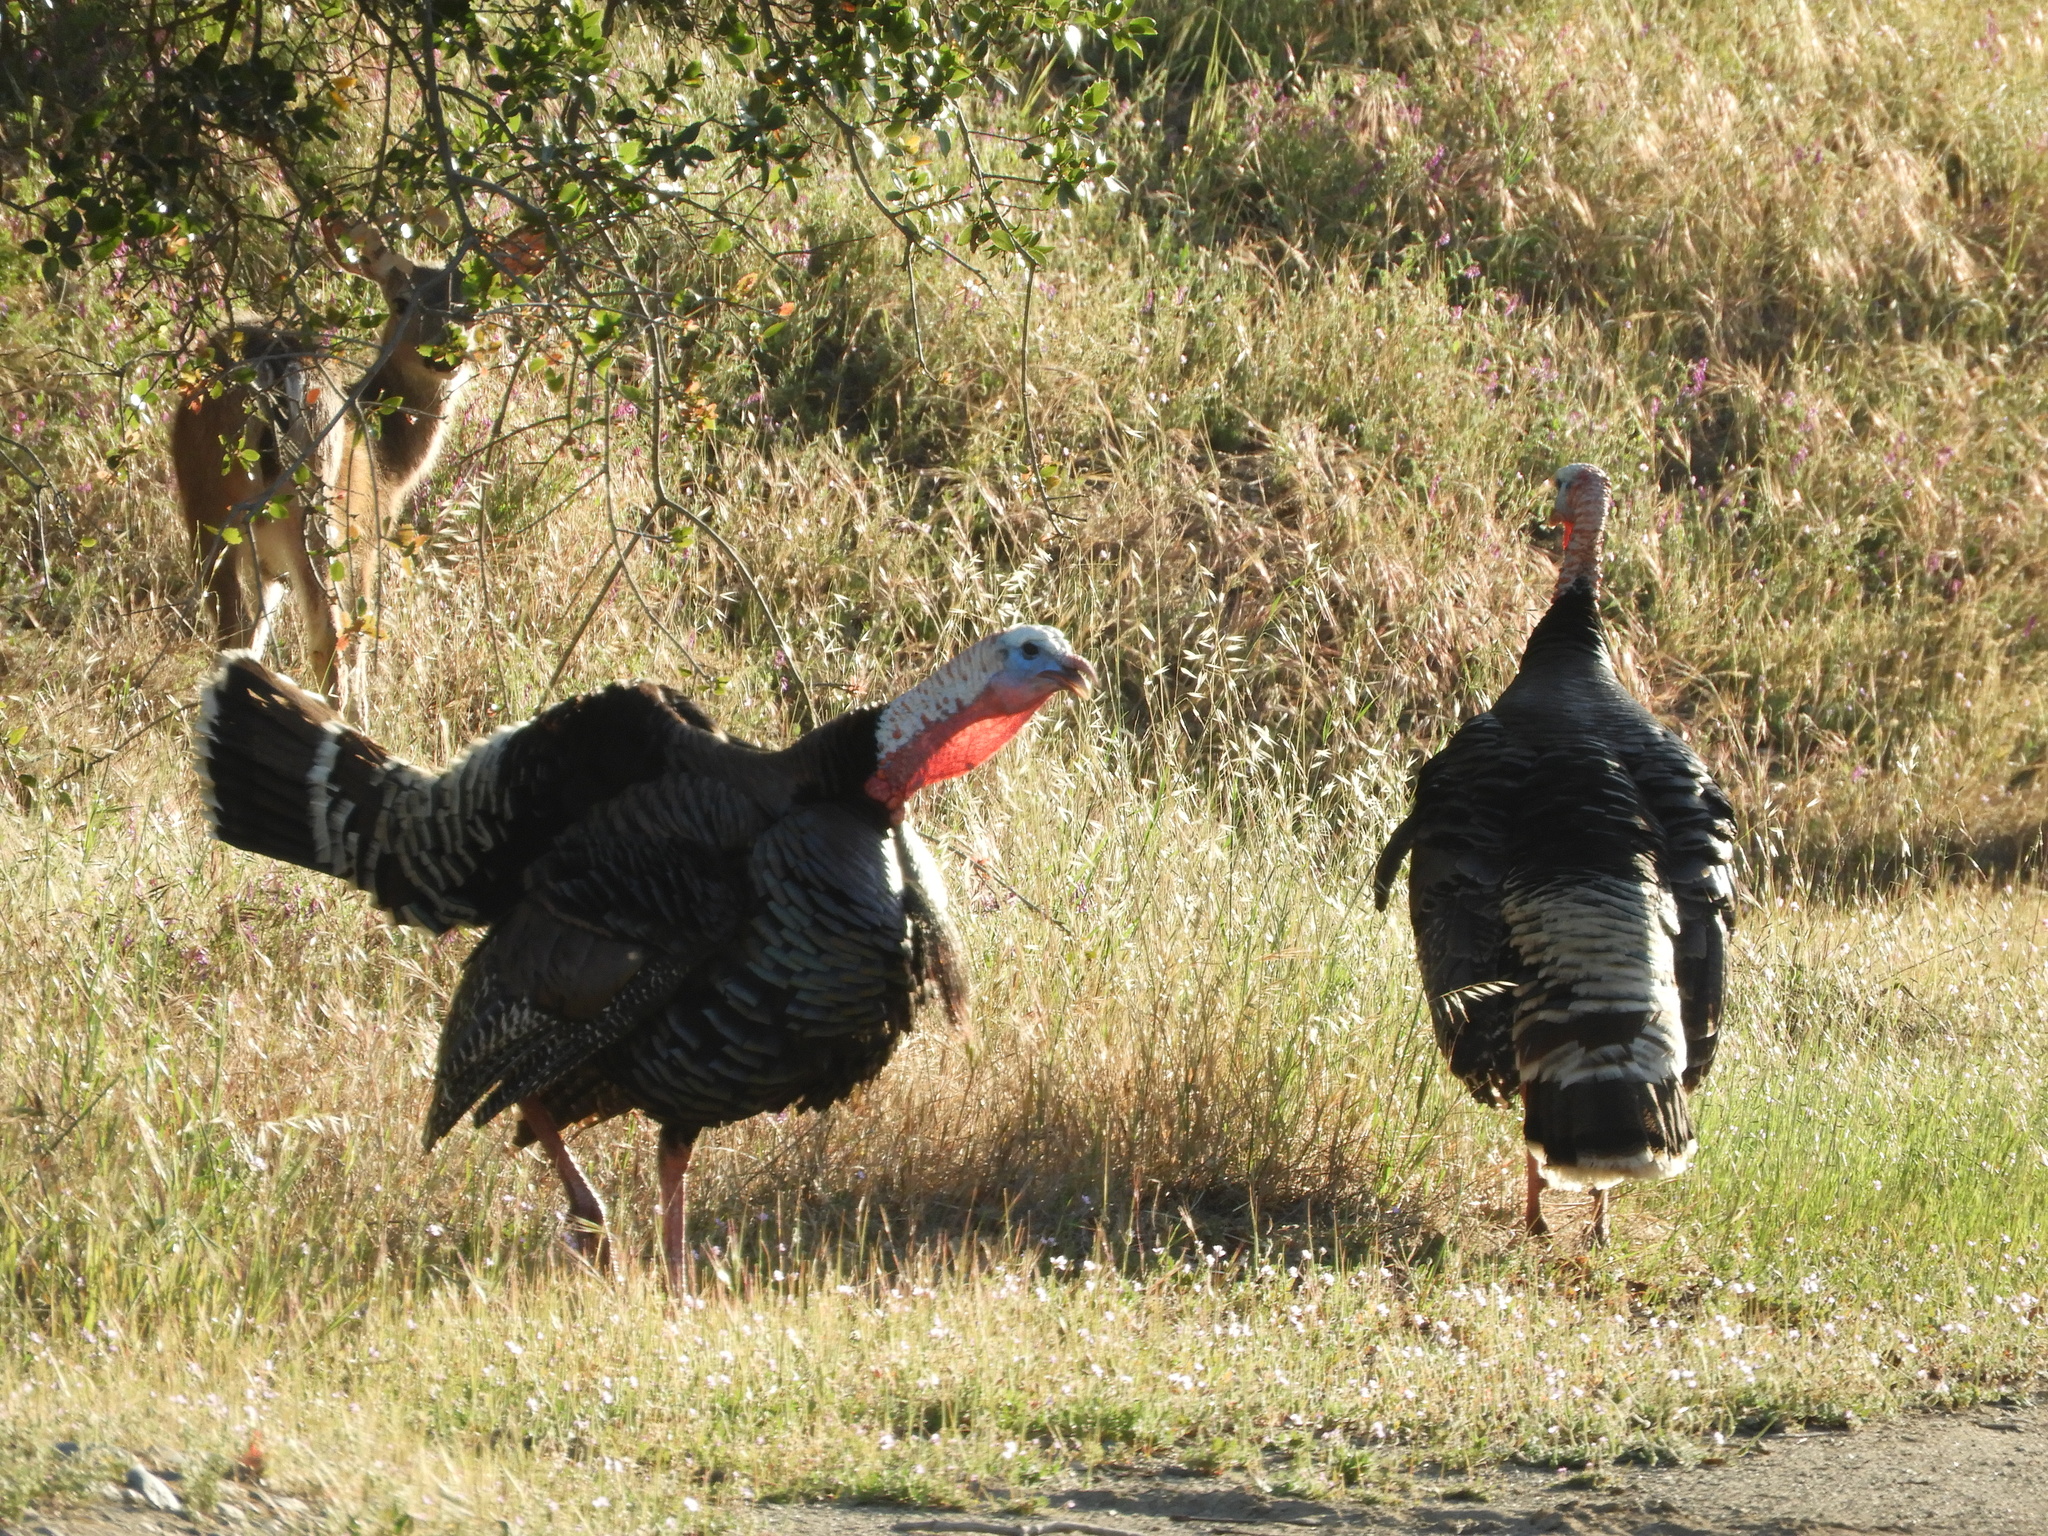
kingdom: Animalia
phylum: Chordata
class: Aves
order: Galliformes
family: Phasianidae
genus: Meleagris
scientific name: Meleagris gallopavo
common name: Wild turkey
